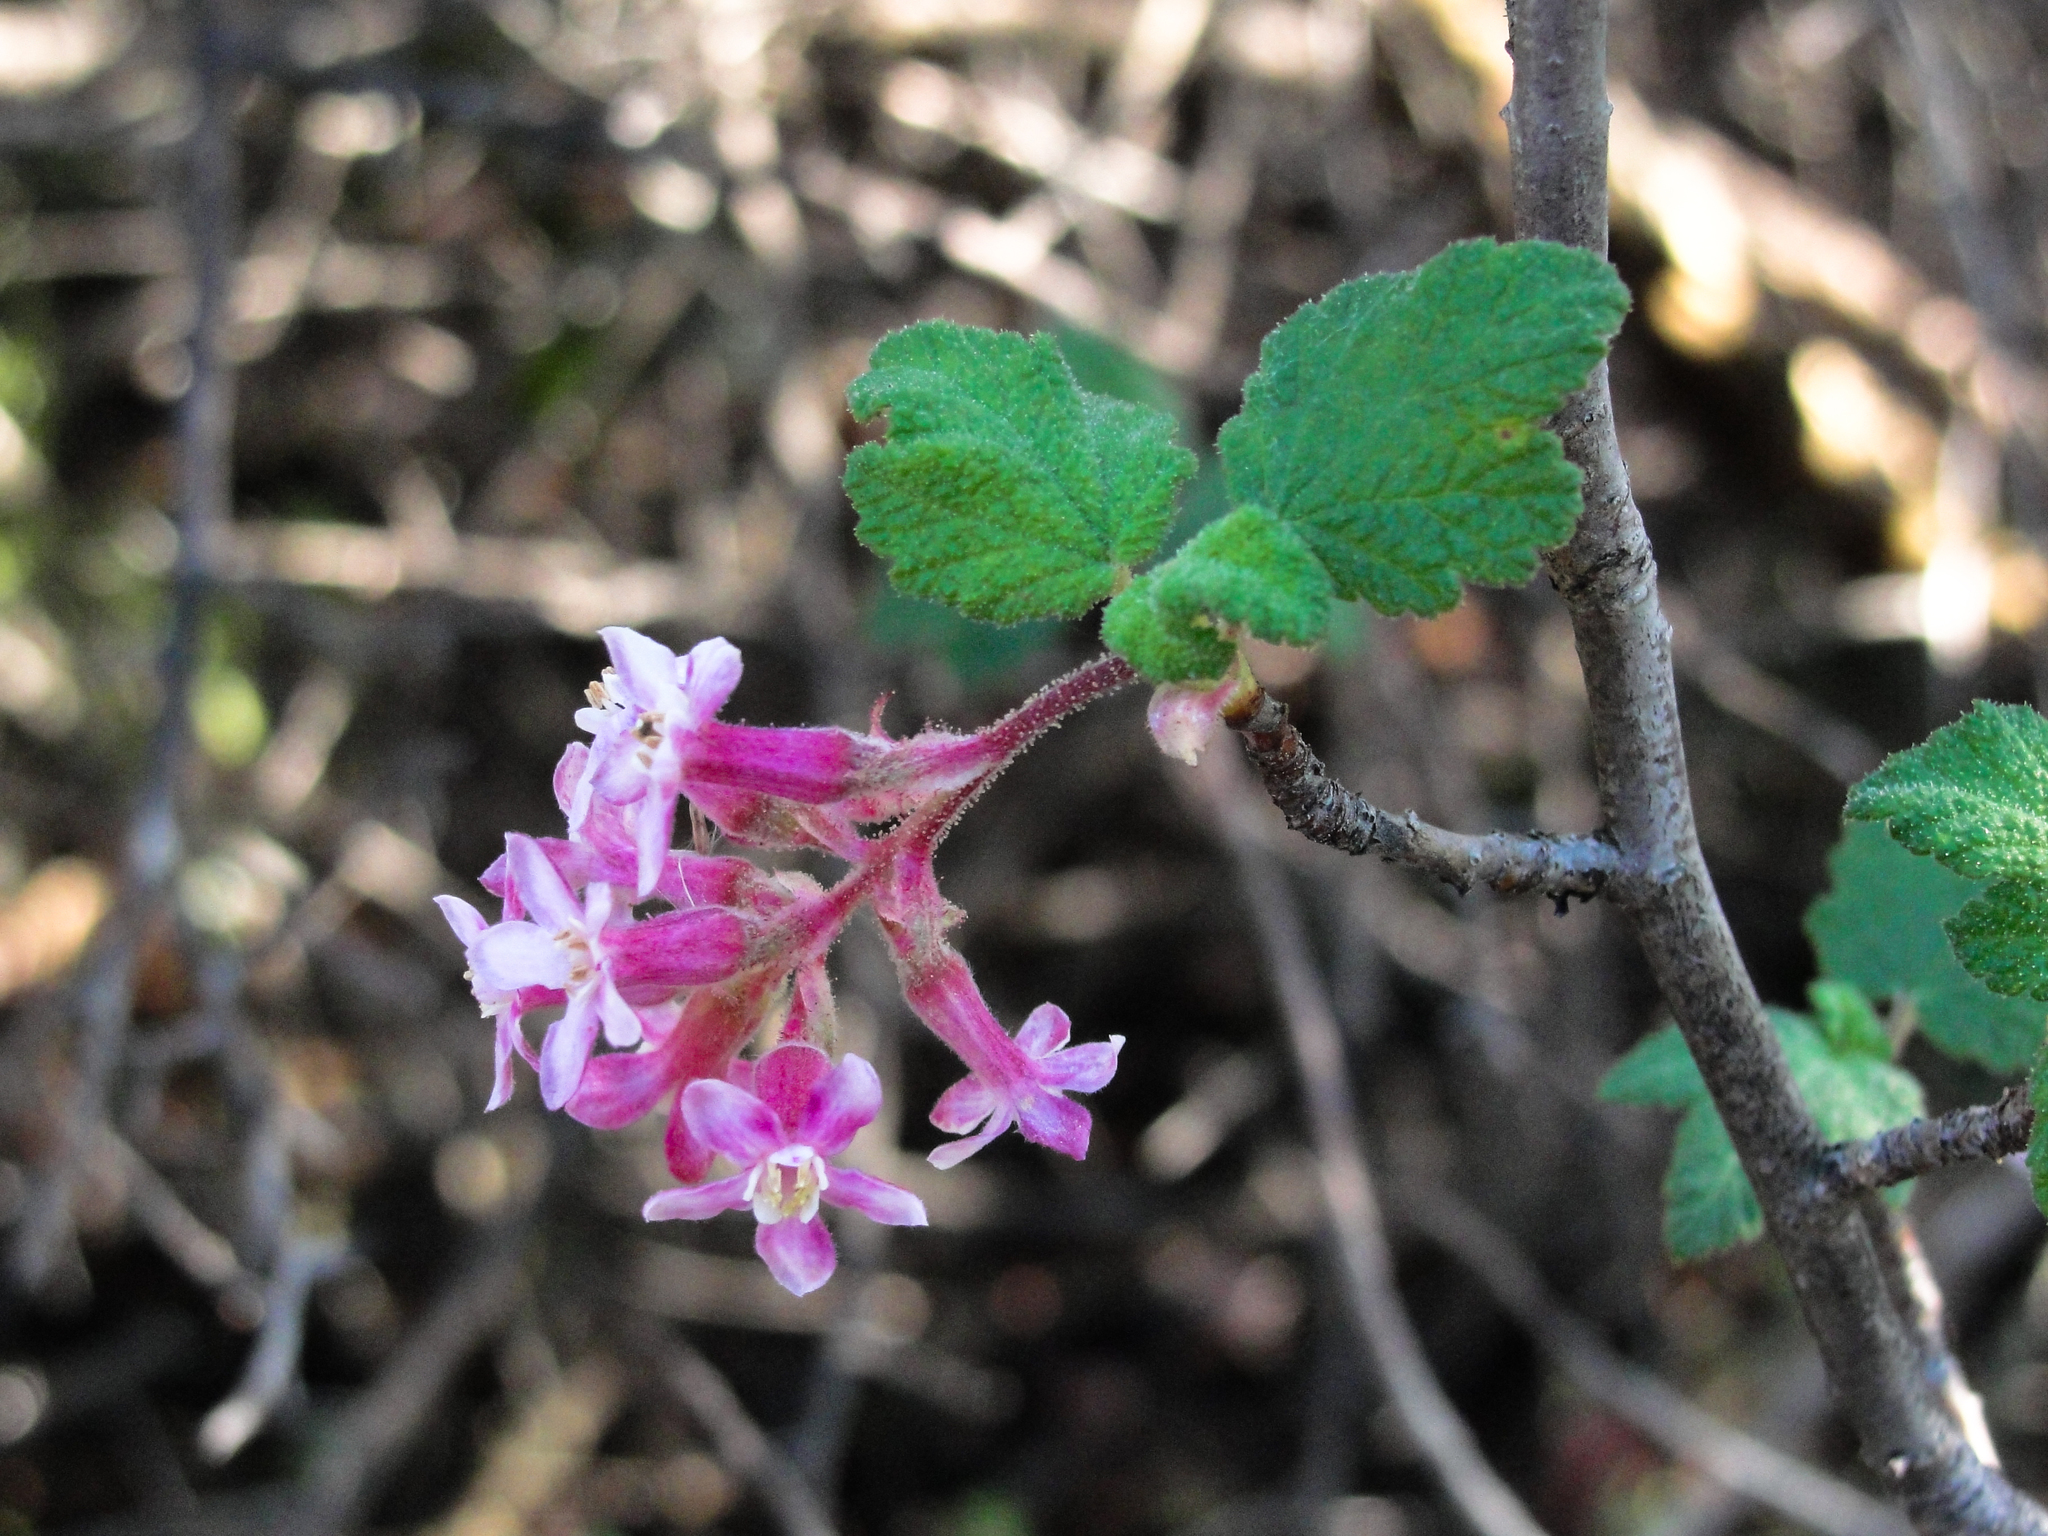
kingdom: Plantae
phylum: Tracheophyta
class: Magnoliopsida
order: Saxifragales
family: Grossulariaceae
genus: Ribes
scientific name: Ribes malvaceum
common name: Chaparral currant
